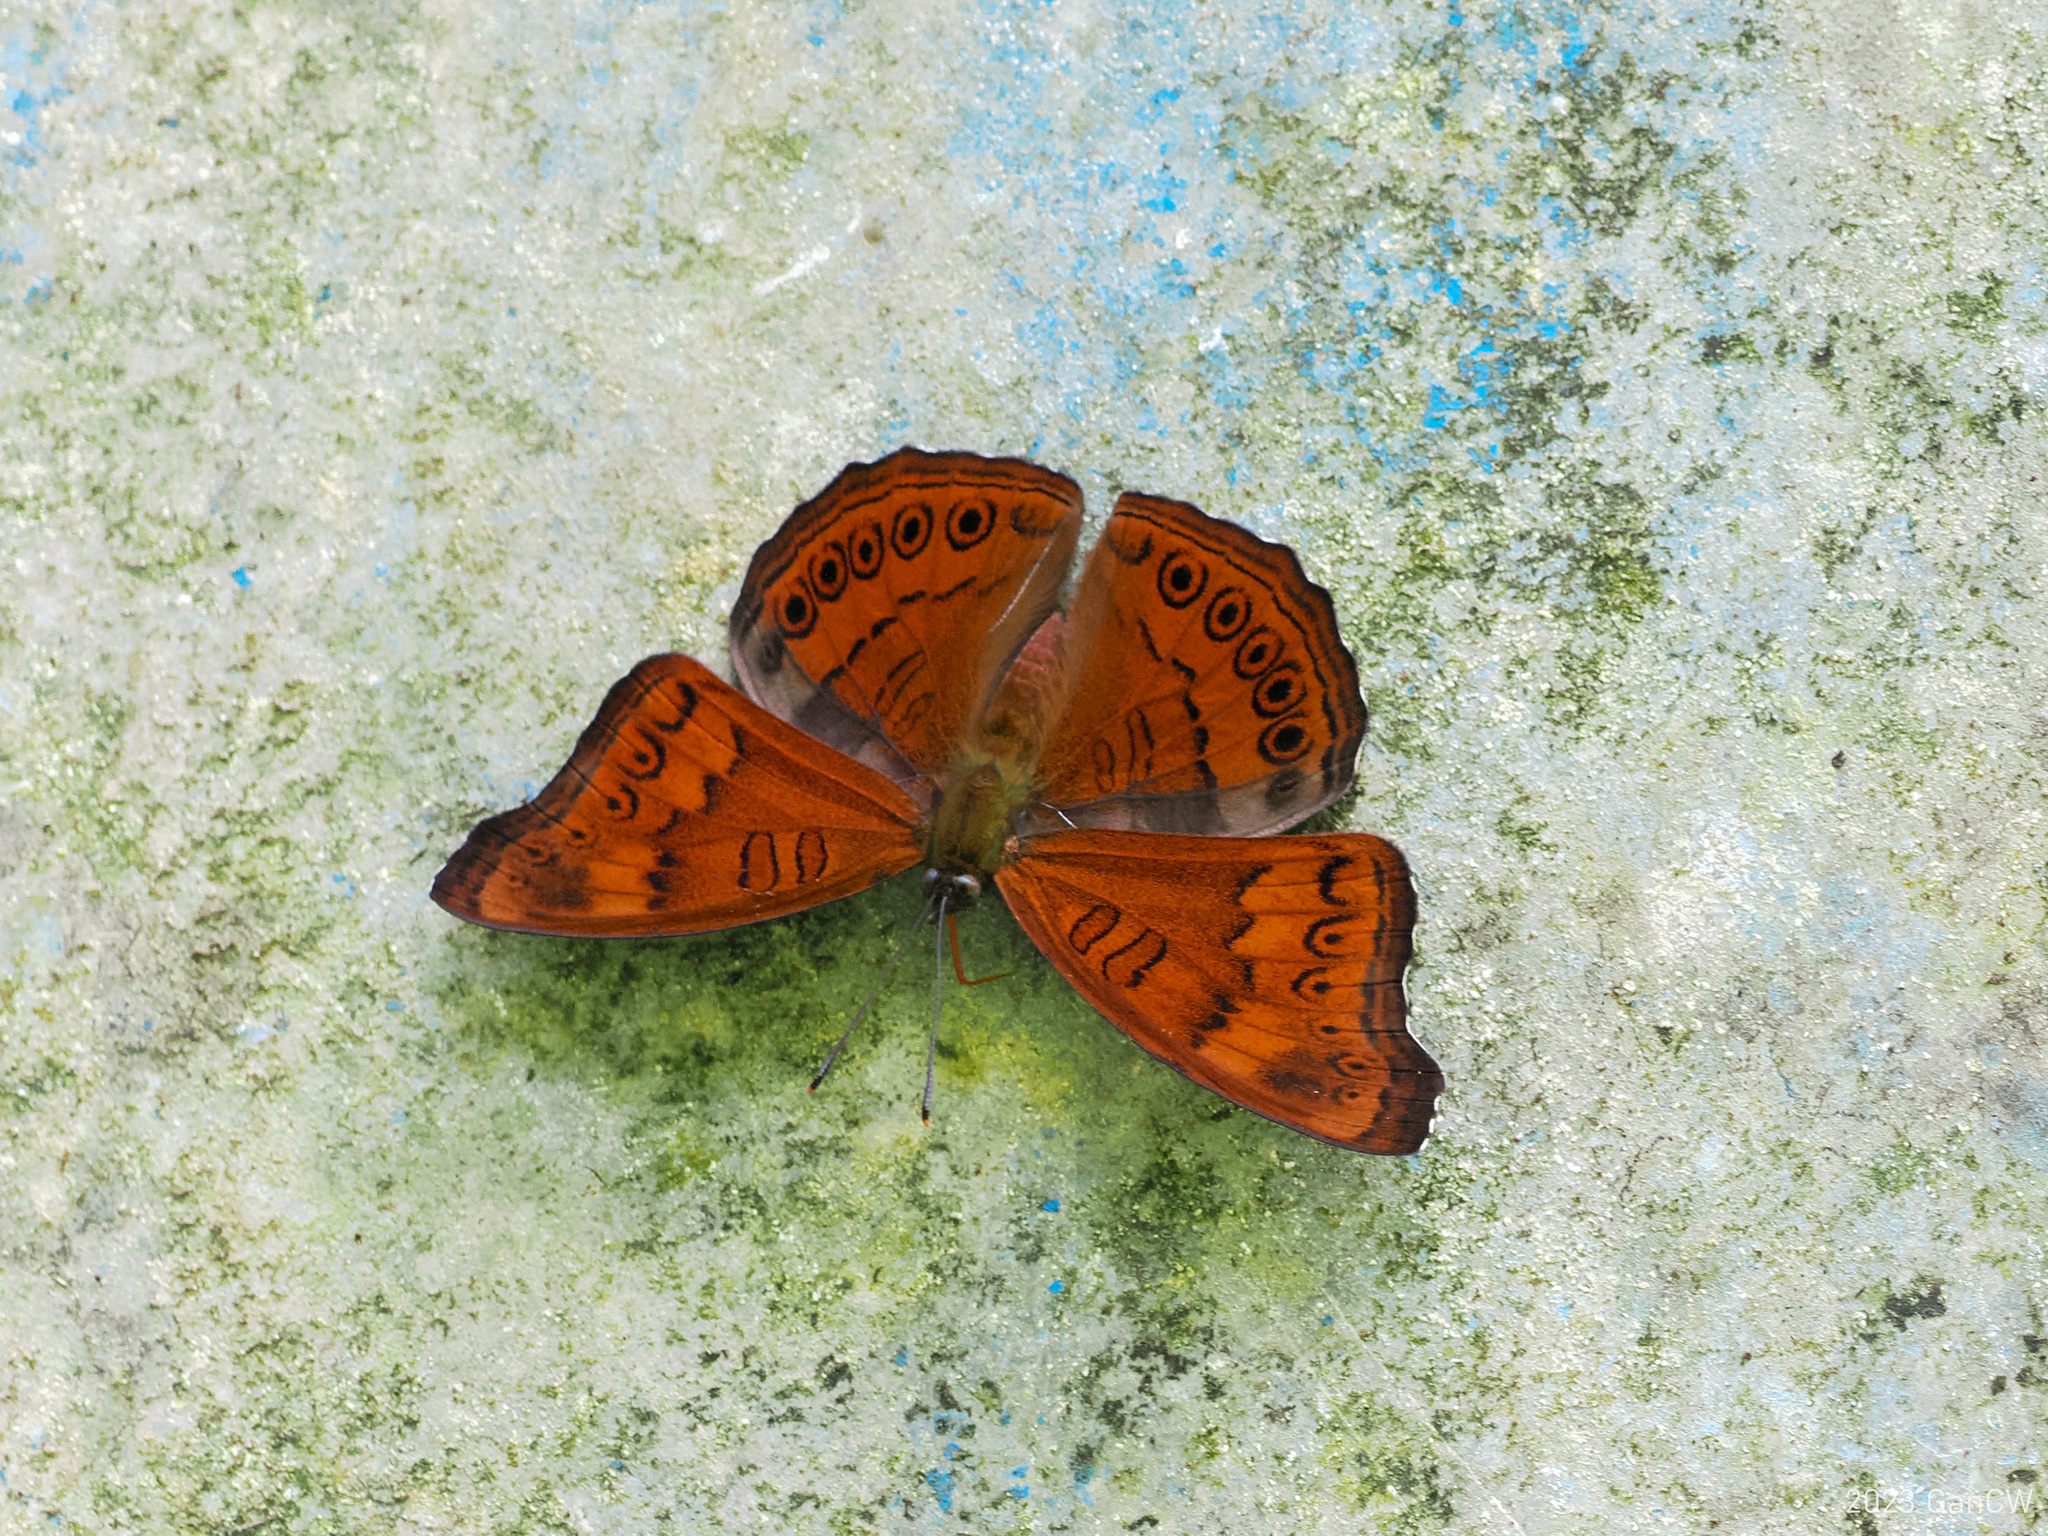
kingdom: Animalia
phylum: Arthropoda
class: Insecta
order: Lepidoptera
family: Nymphalidae
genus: Pseudergolis
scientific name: Pseudergolis avesta
